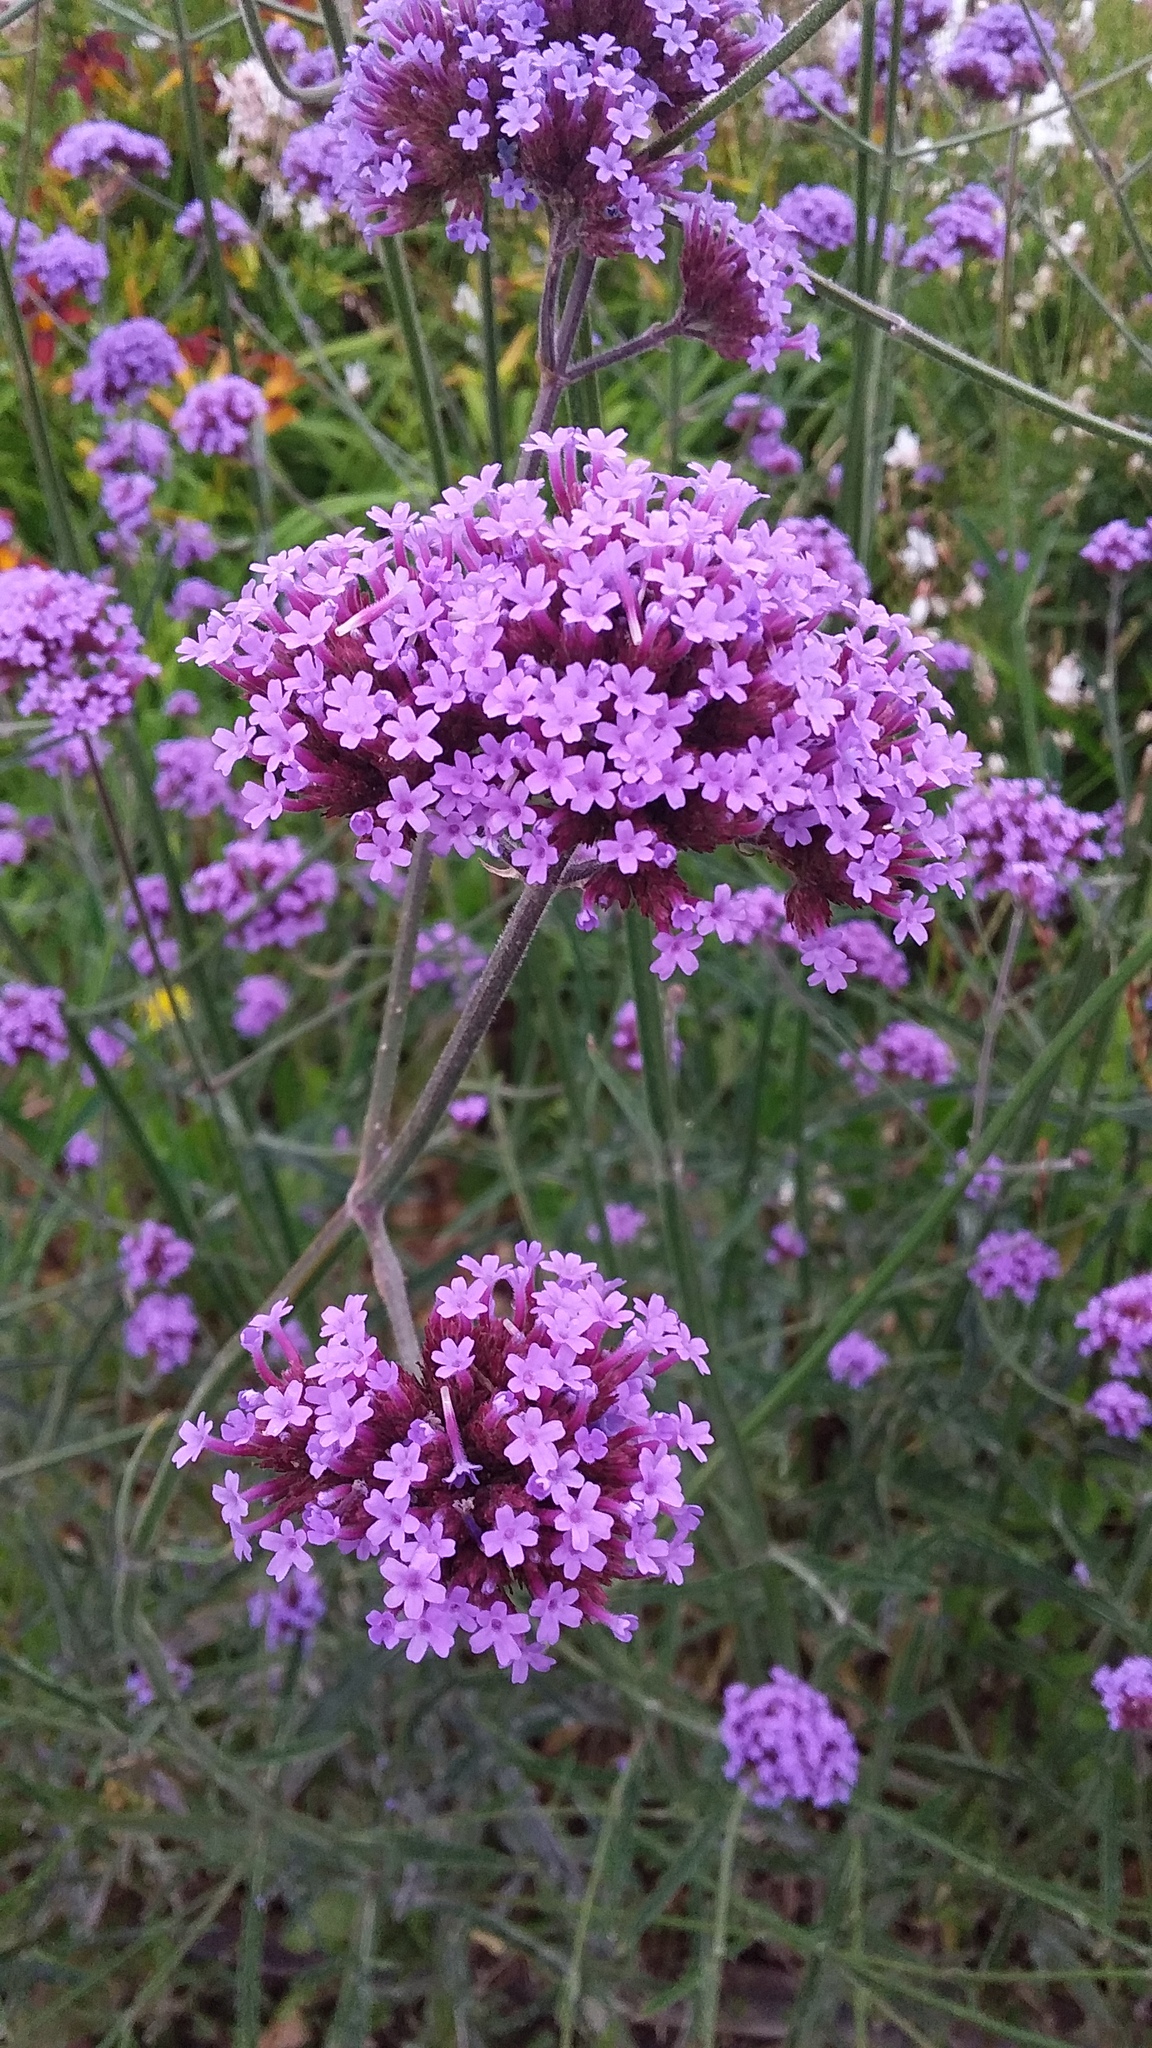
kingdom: Plantae
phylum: Tracheophyta
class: Magnoliopsida
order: Lamiales
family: Verbenaceae
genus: Verbena
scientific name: Verbena bonariensis
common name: Purpletop vervain
